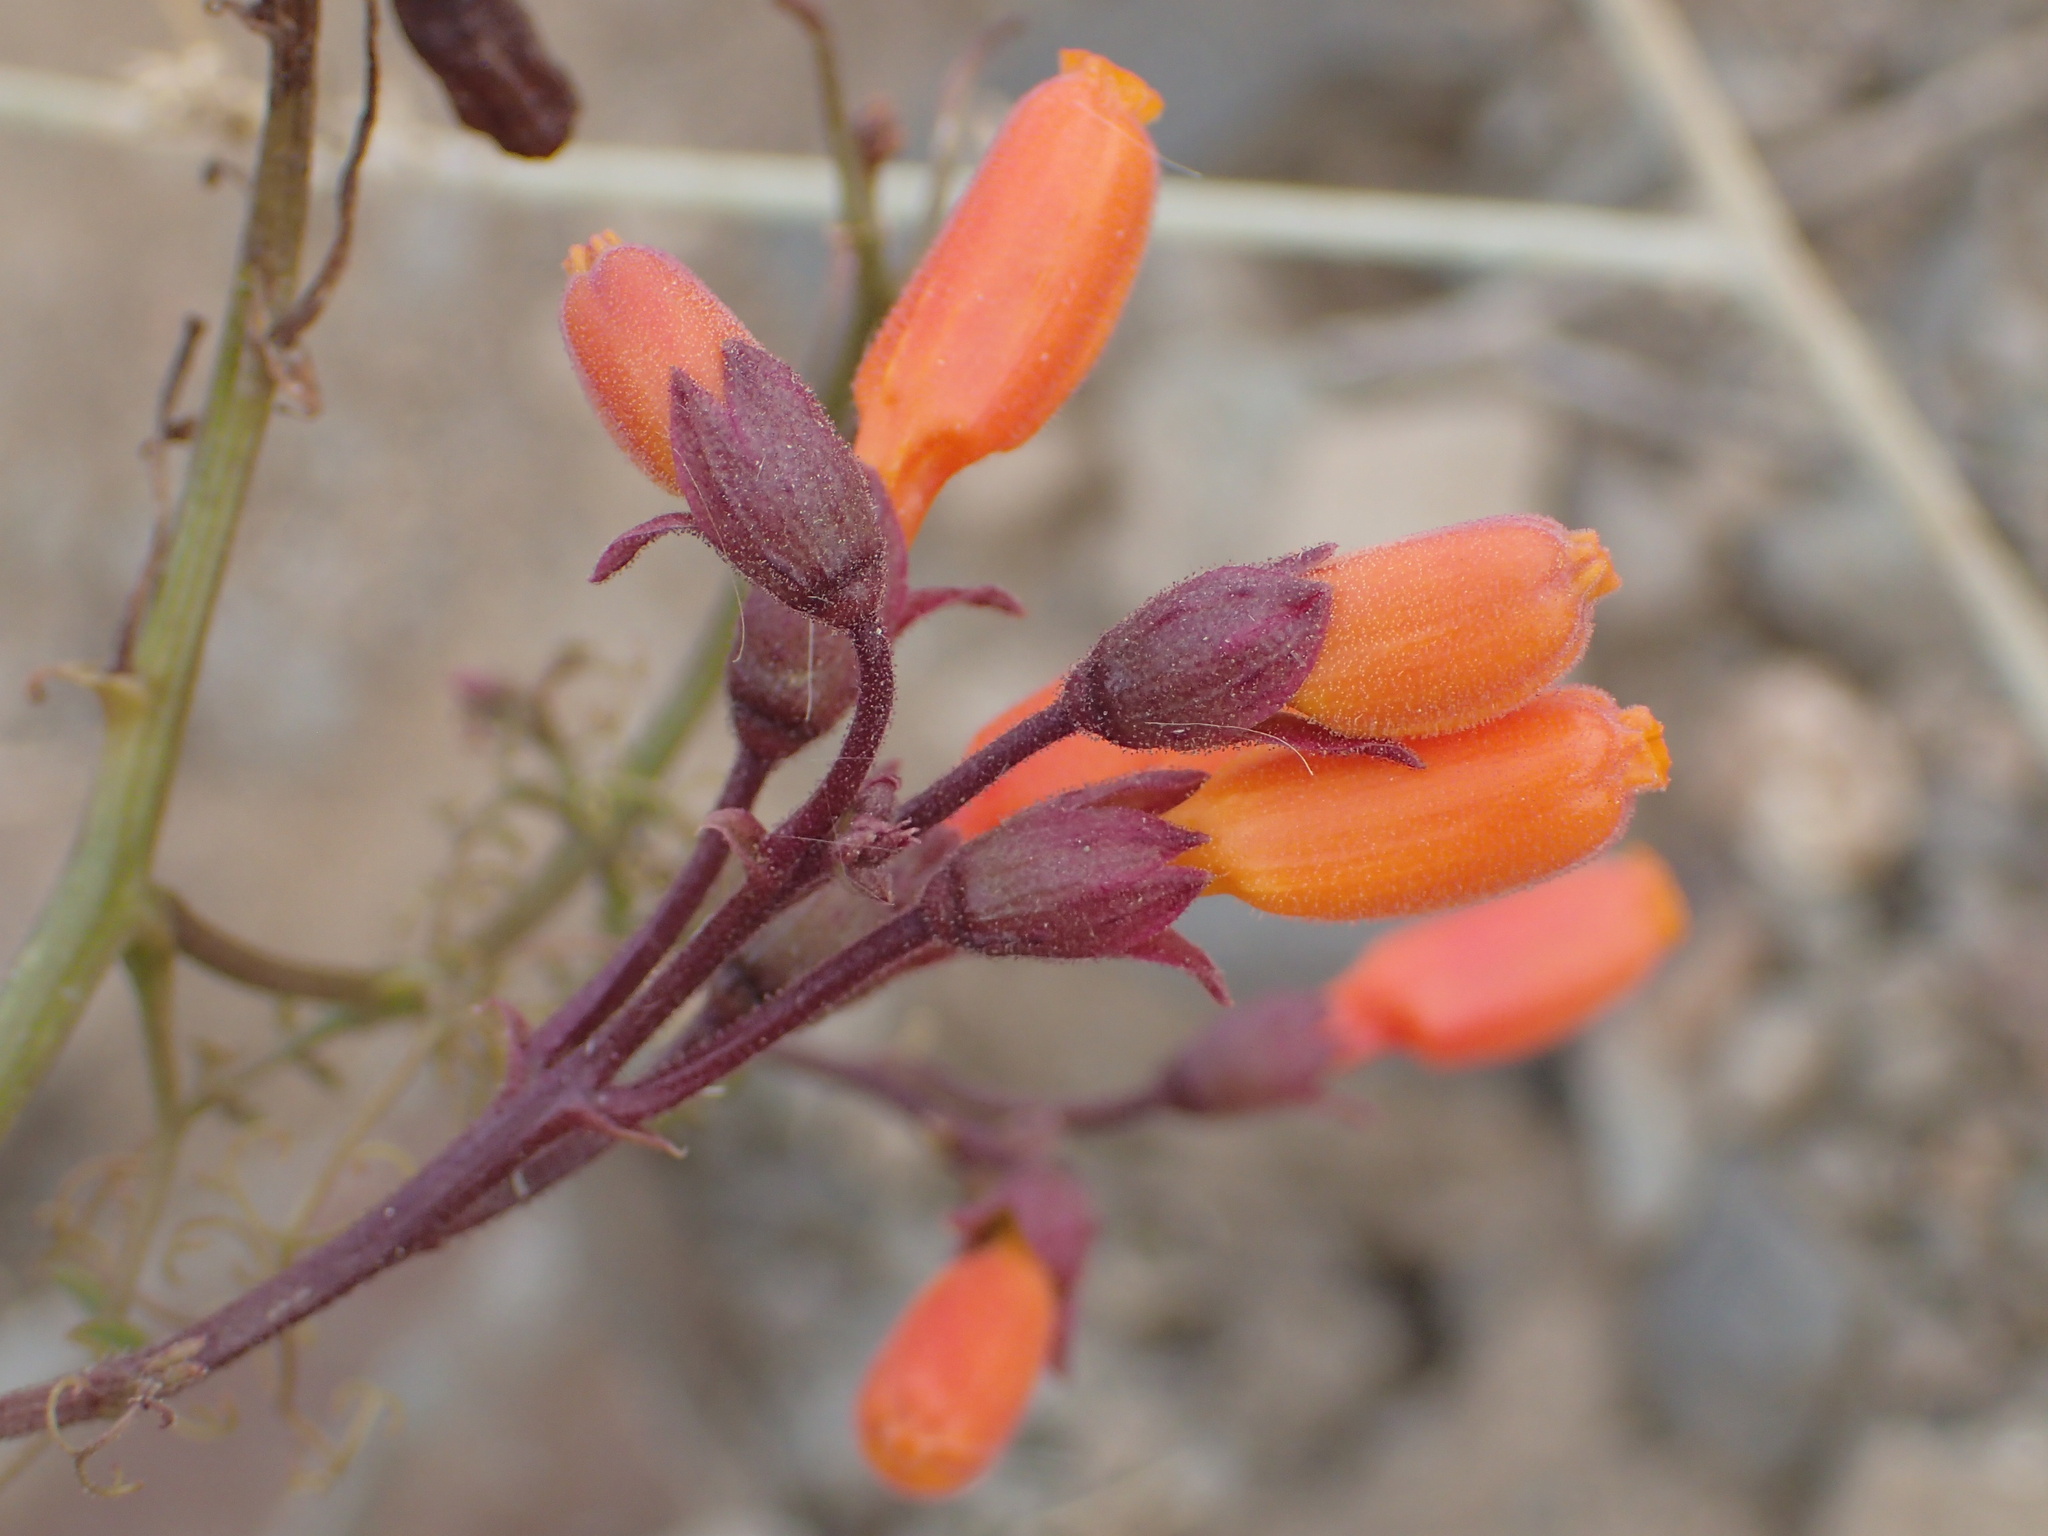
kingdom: Plantae
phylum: Tracheophyta
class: Magnoliopsida
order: Lamiales
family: Bignoniaceae
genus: Eccremocarpus
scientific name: Eccremocarpus scaber
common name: Chilean glory-flower
